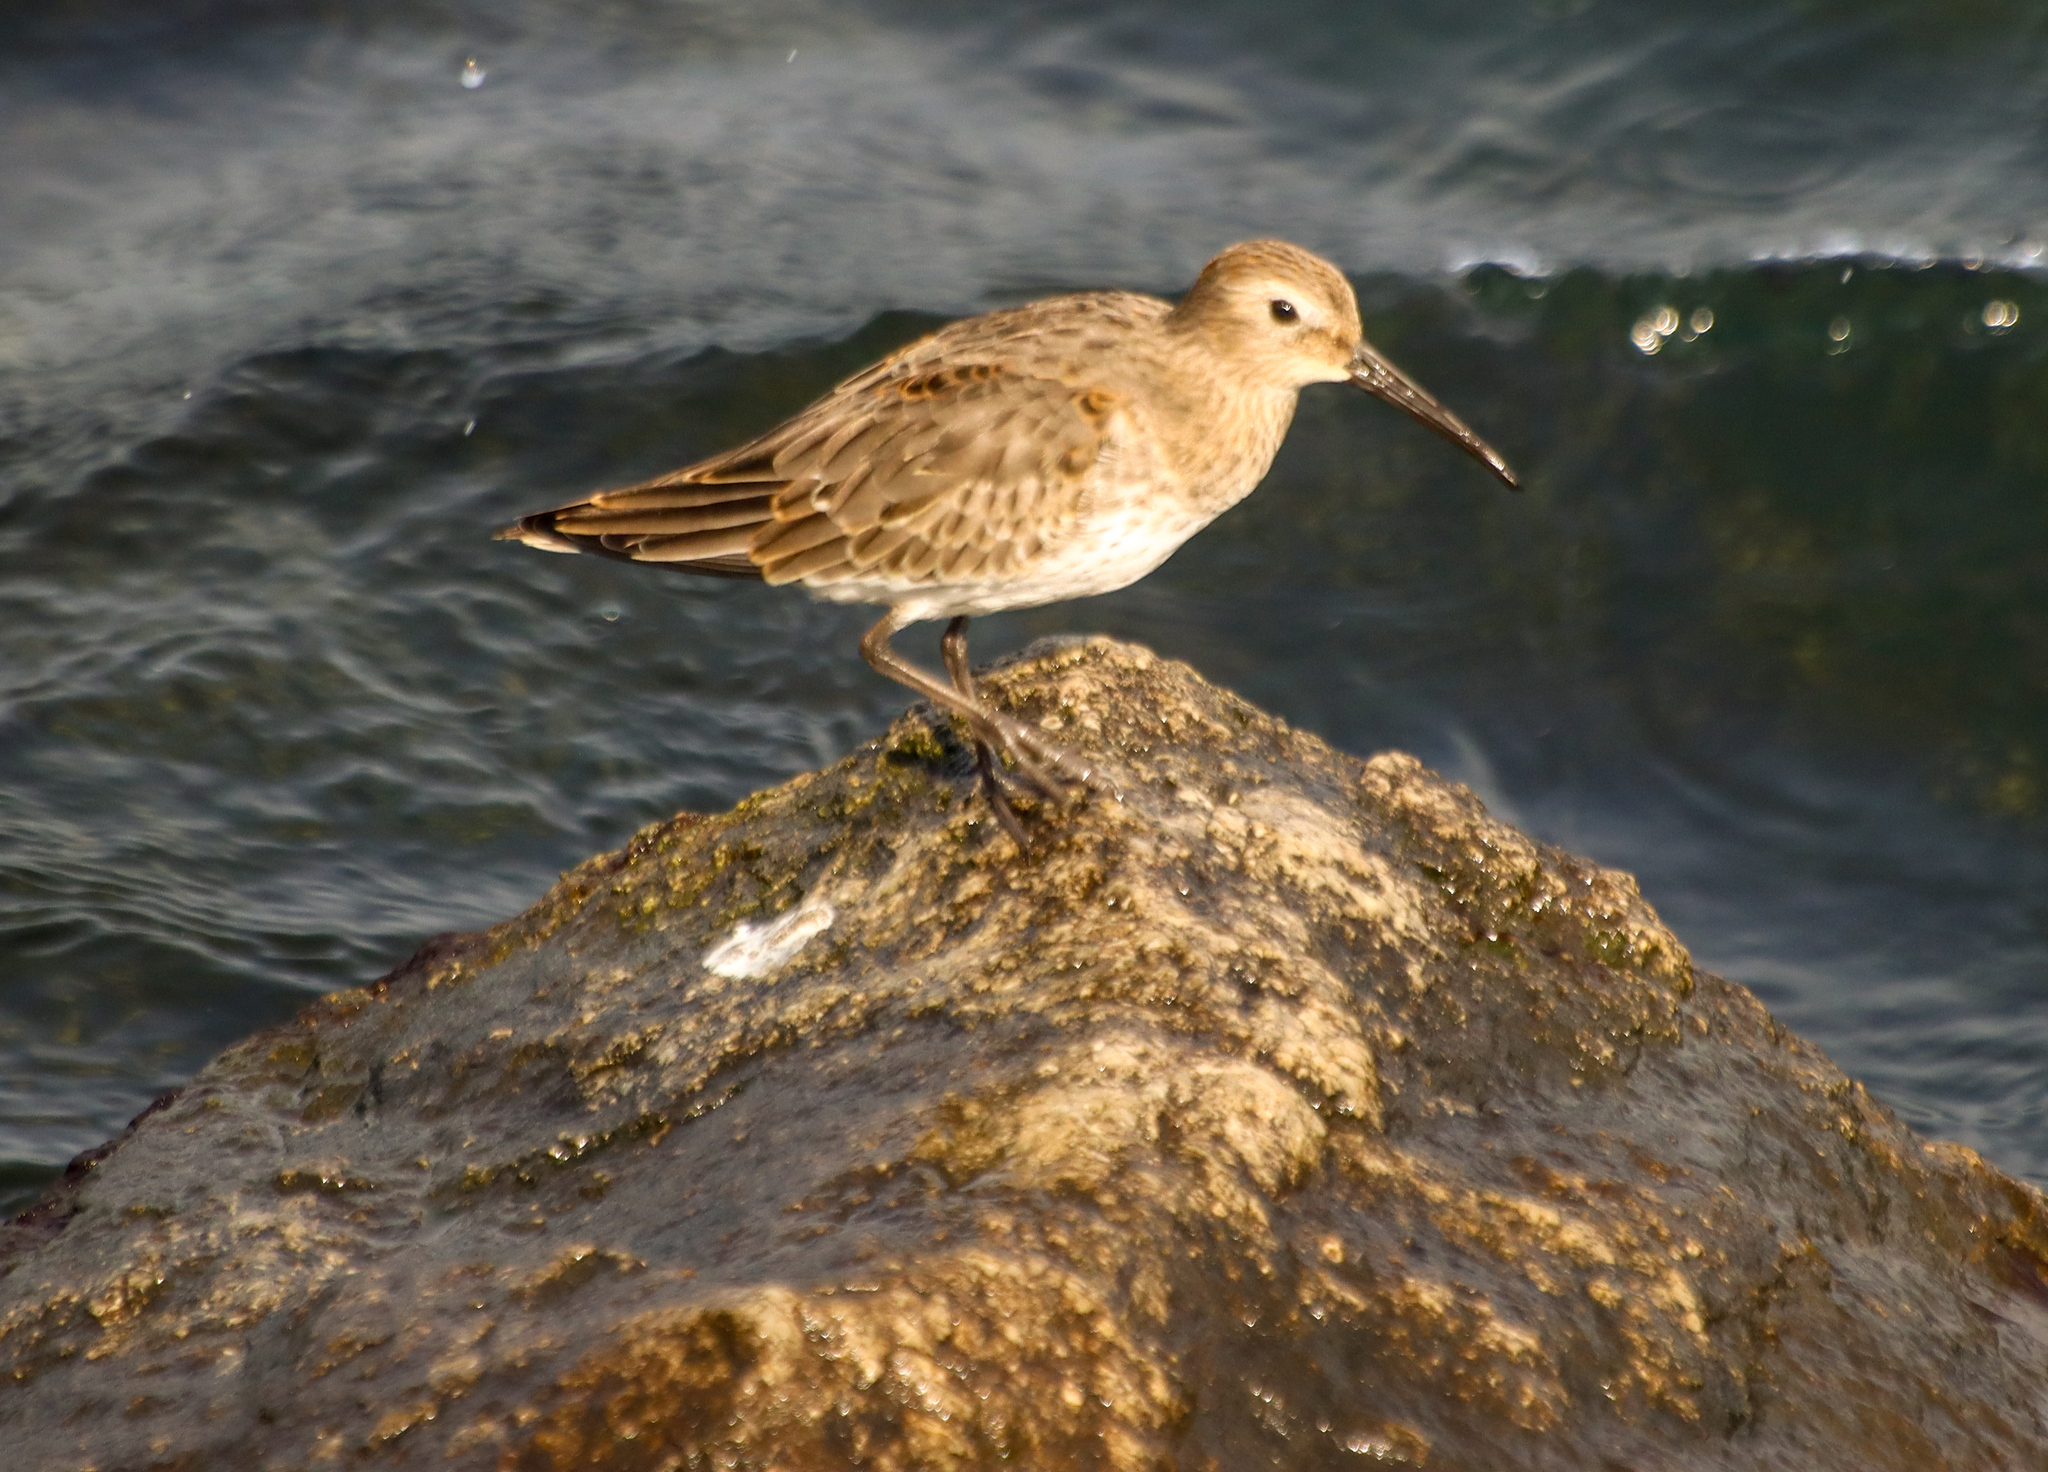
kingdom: Animalia
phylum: Chordata
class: Aves
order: Charadriiformes
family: Scolopacidae
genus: Calidris
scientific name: Calidris alpina
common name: Dunlin
